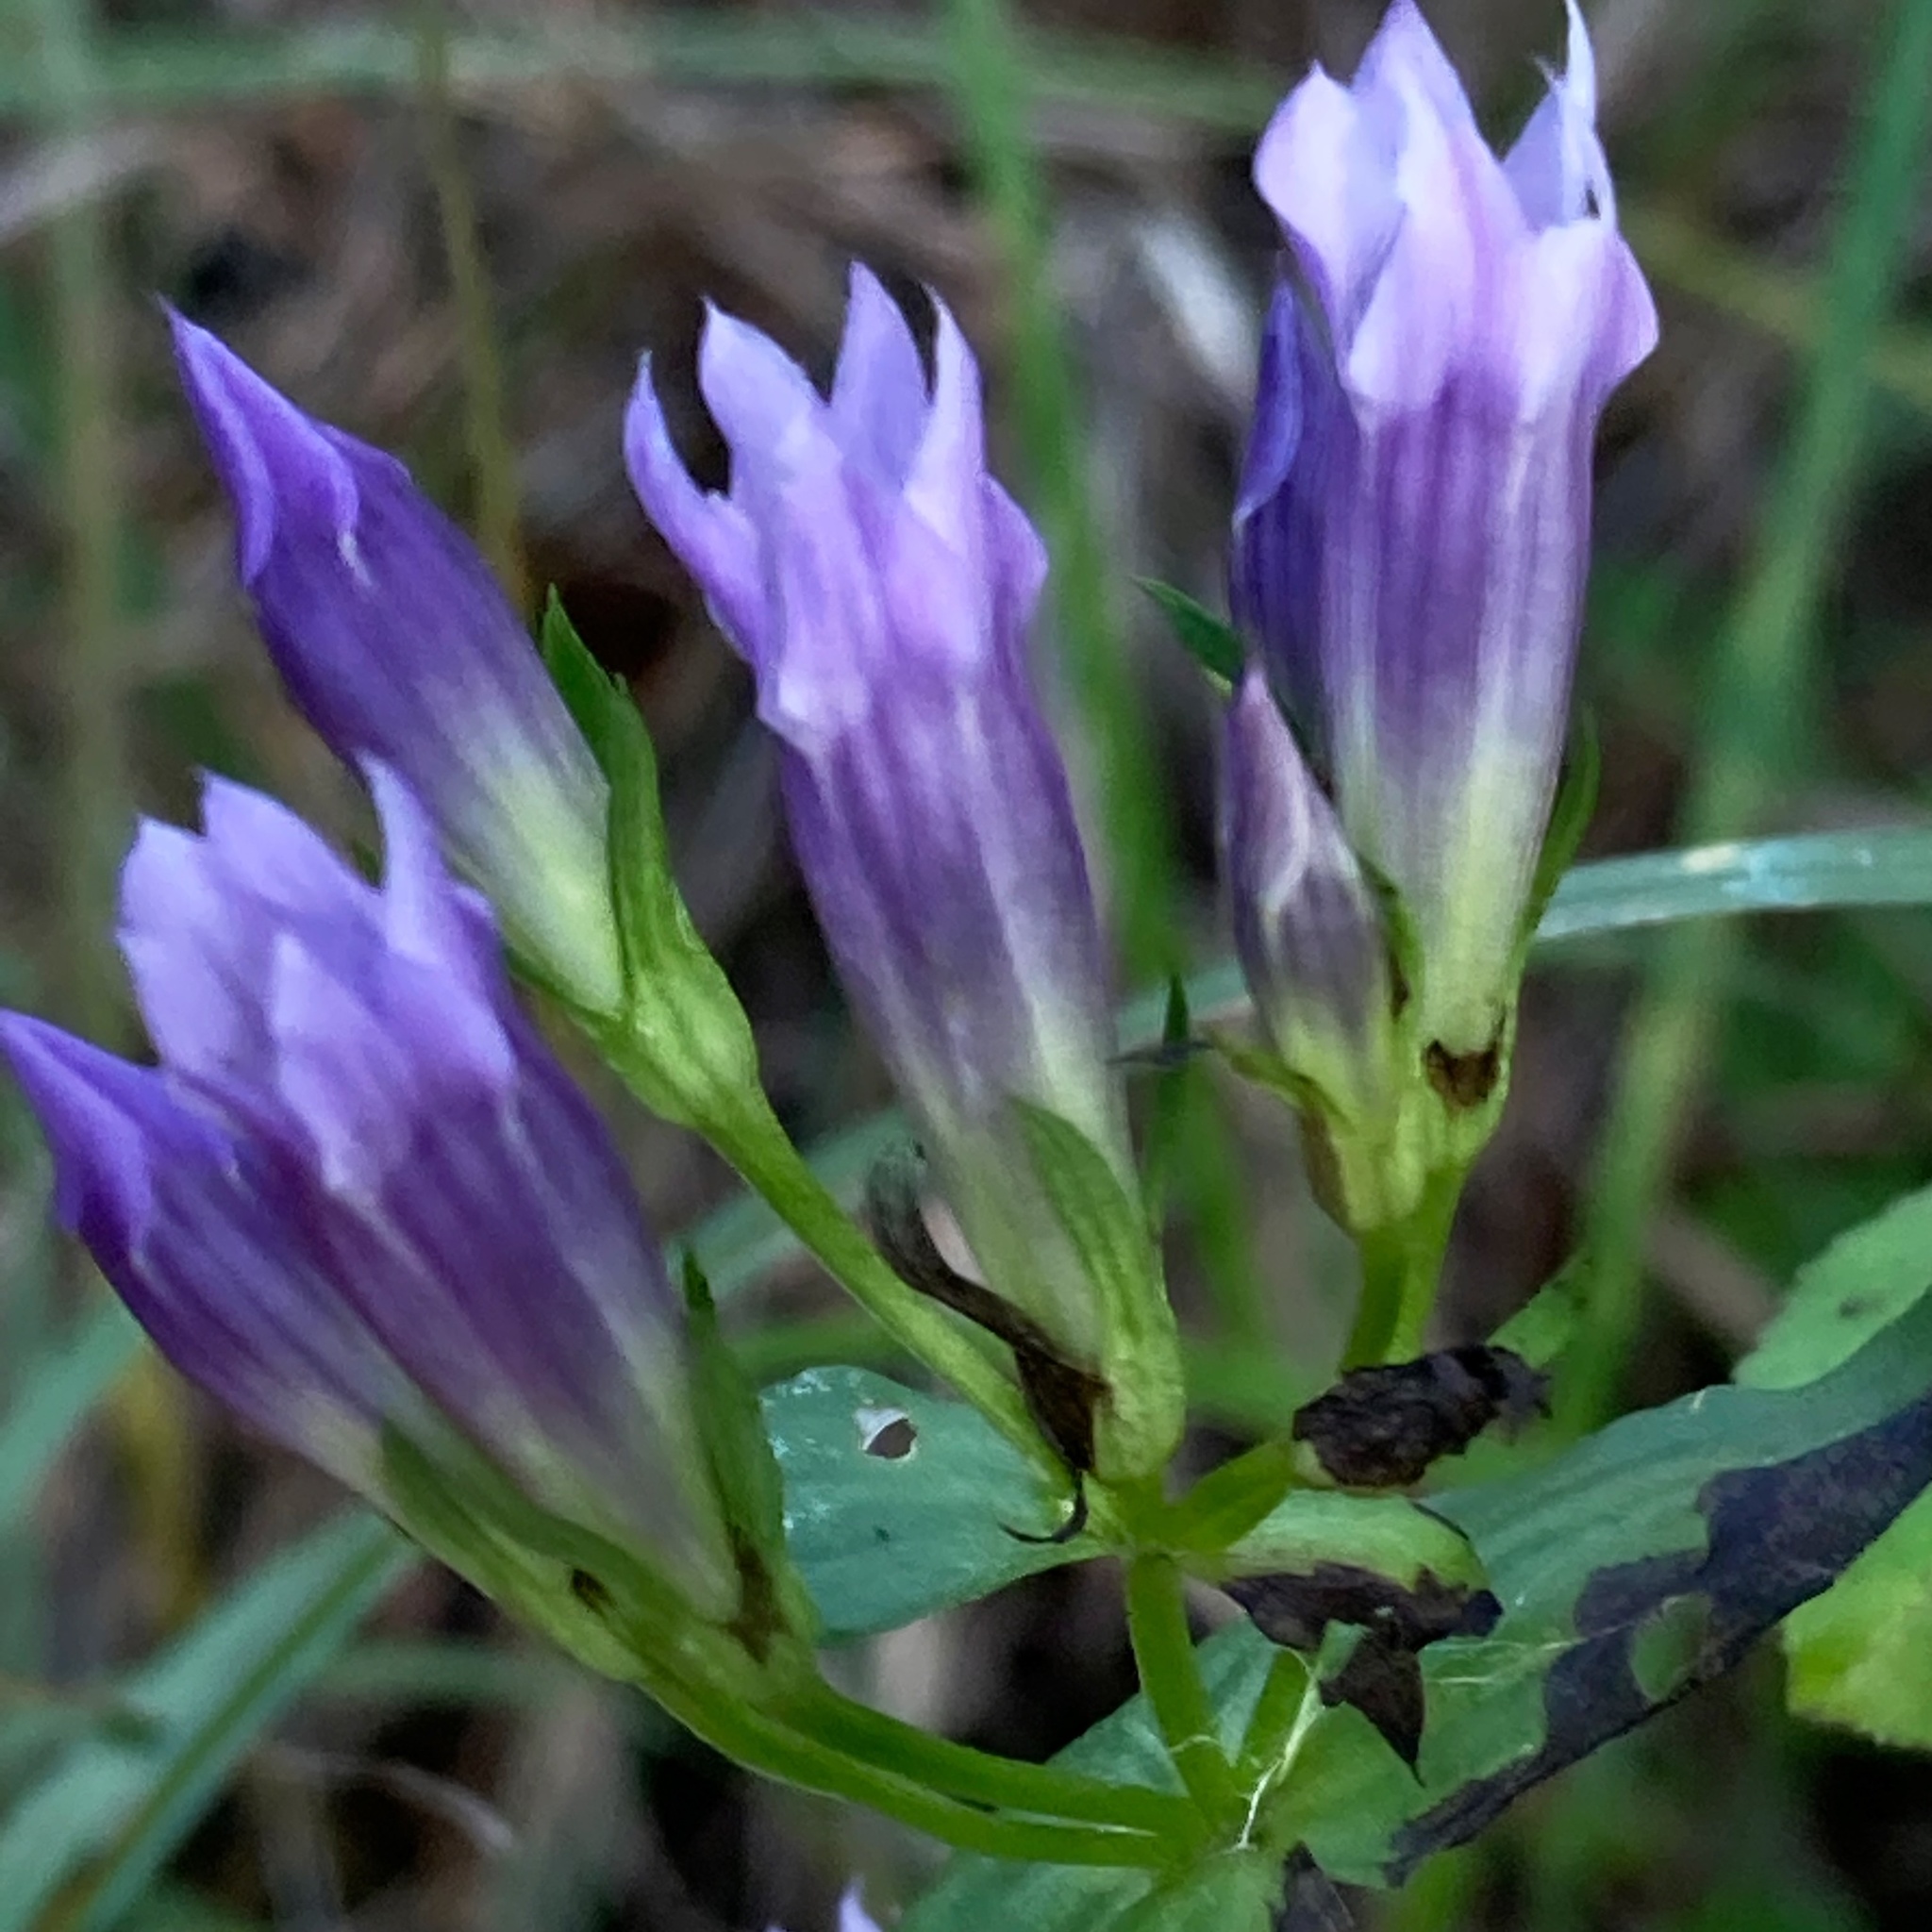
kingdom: Plantae
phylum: Tracheophyta
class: Magnoliopsida
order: Gentianales
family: Gentianaceae
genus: Gentianella
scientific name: Gentianella quinquefolia
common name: Agueweed
